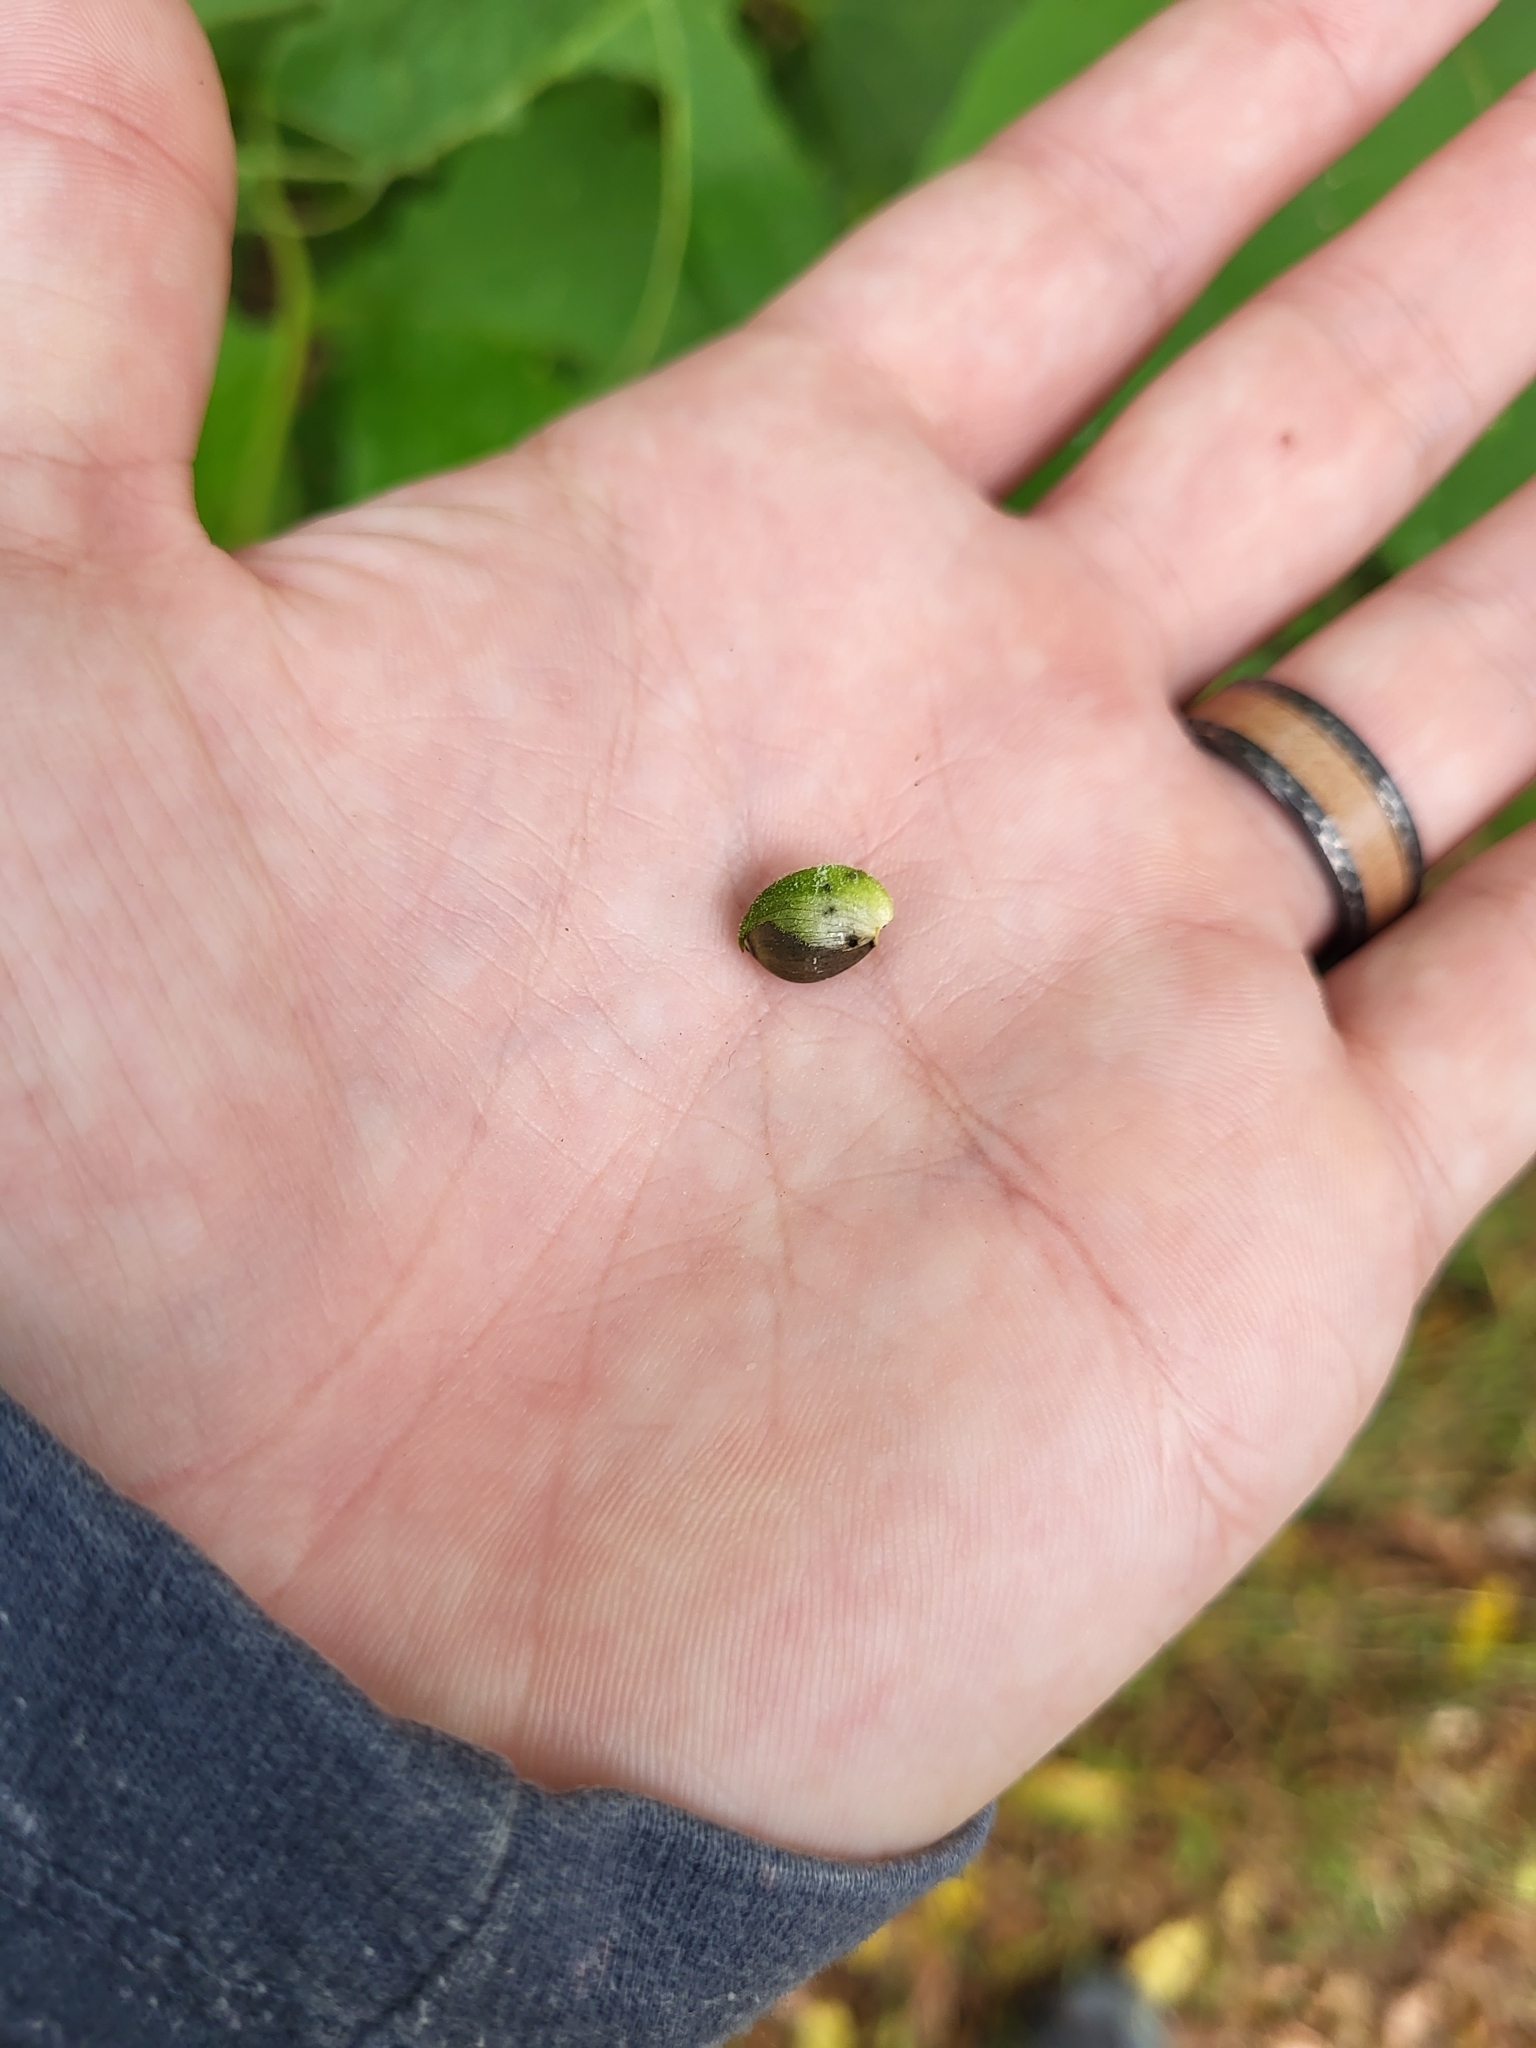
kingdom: Plantae
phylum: Tracheophyta
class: Magnoliopsida
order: Asterales
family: Asteraceae
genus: Smallanthus
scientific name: Smallanthus uvedalia
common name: Bear's-foot
